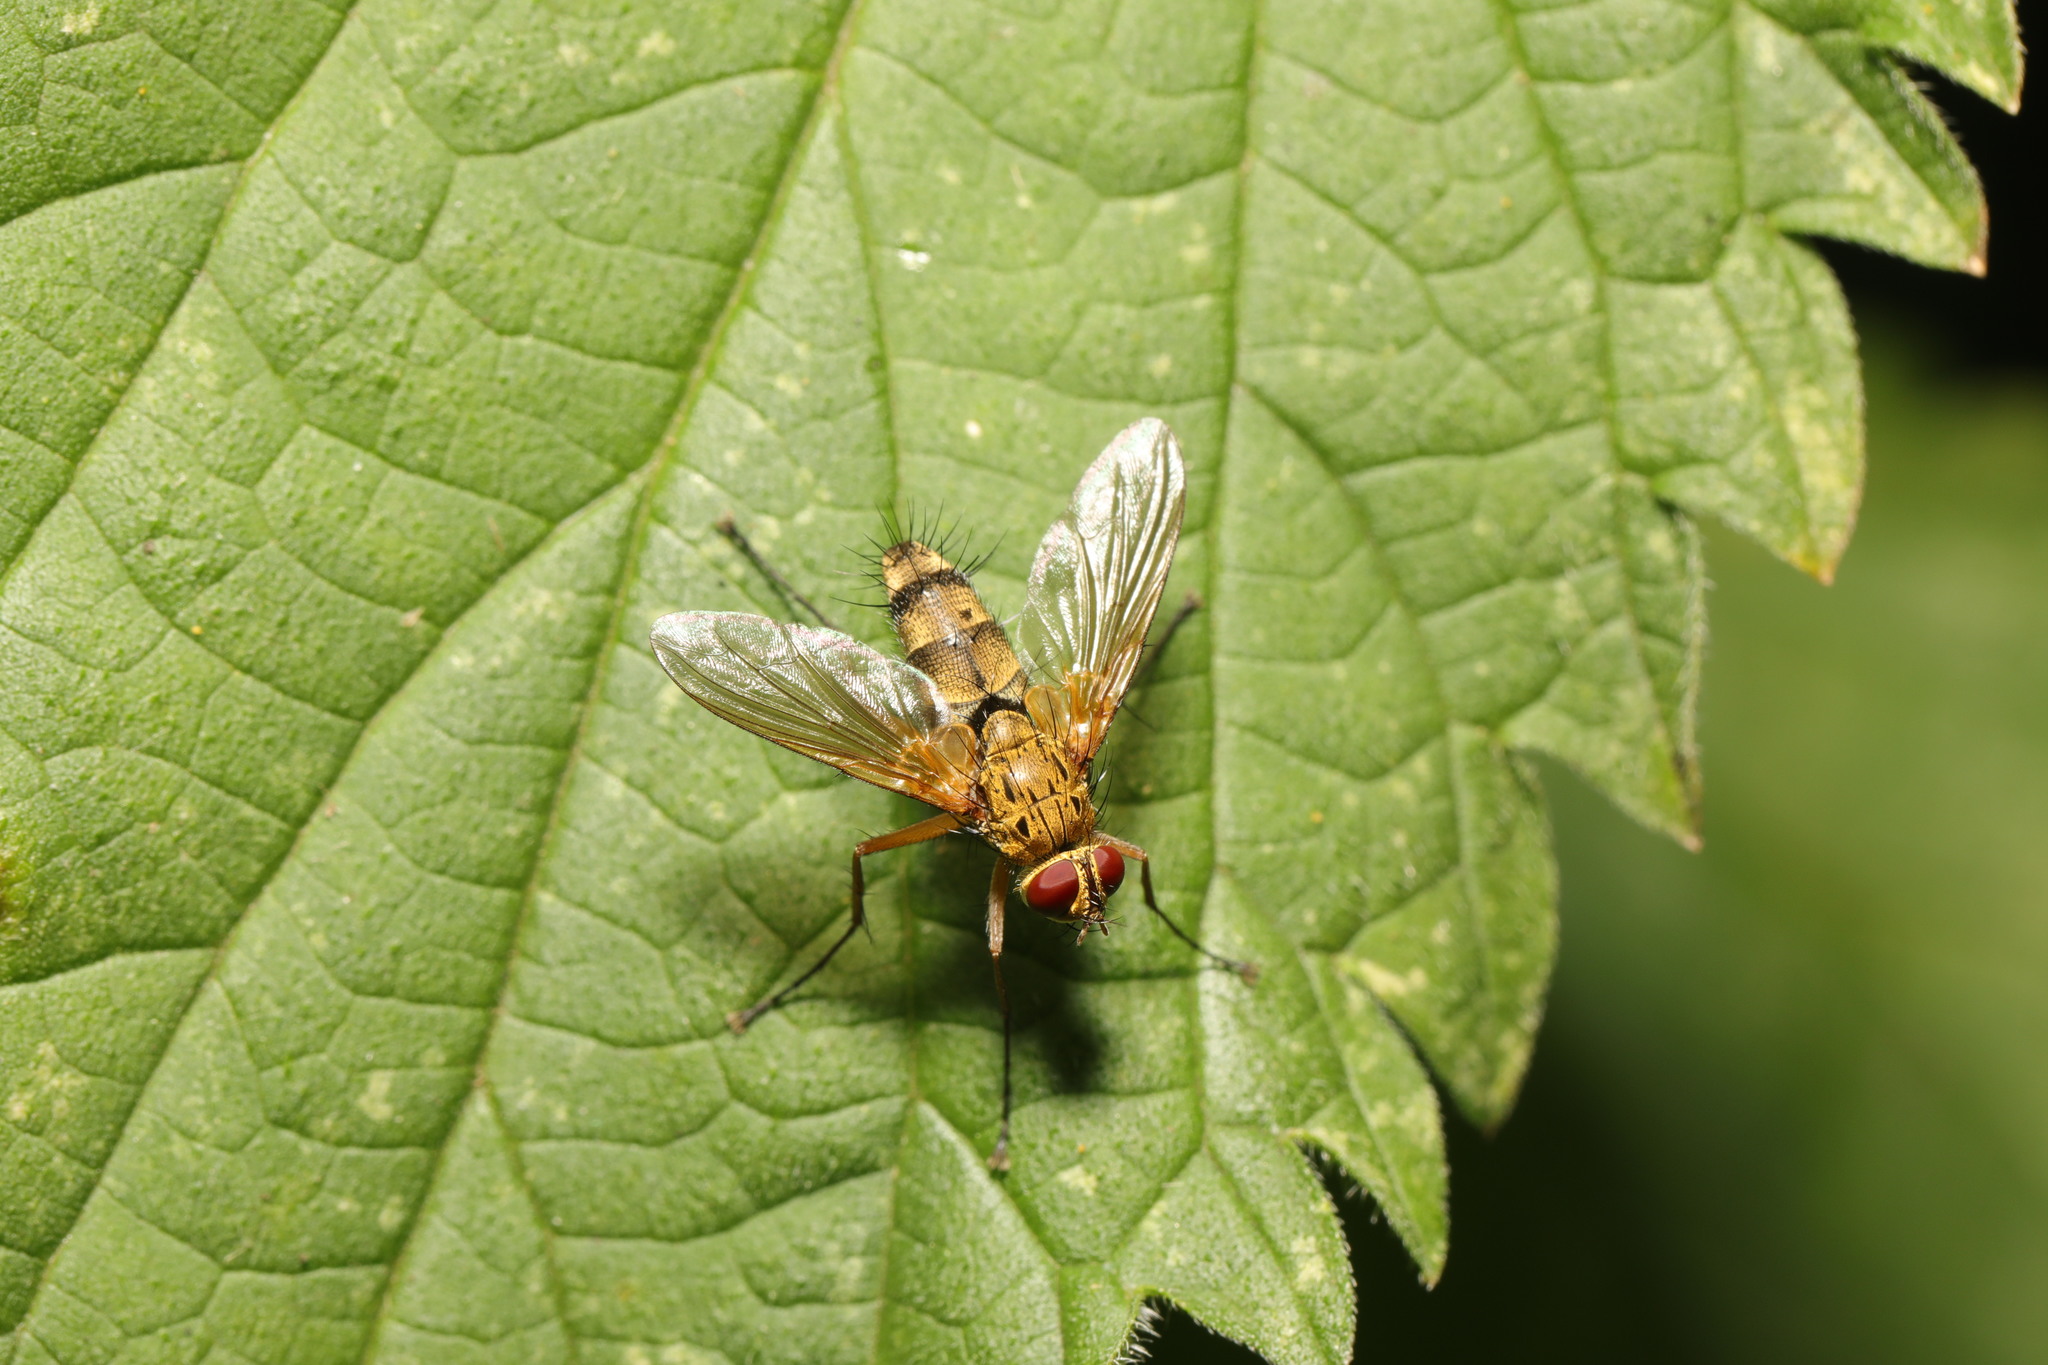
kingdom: Animalia
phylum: Arthropoda
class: Insecta
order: Diptera
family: Tachinidae
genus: Dexiosoma
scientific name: Dexiosoma caninum
